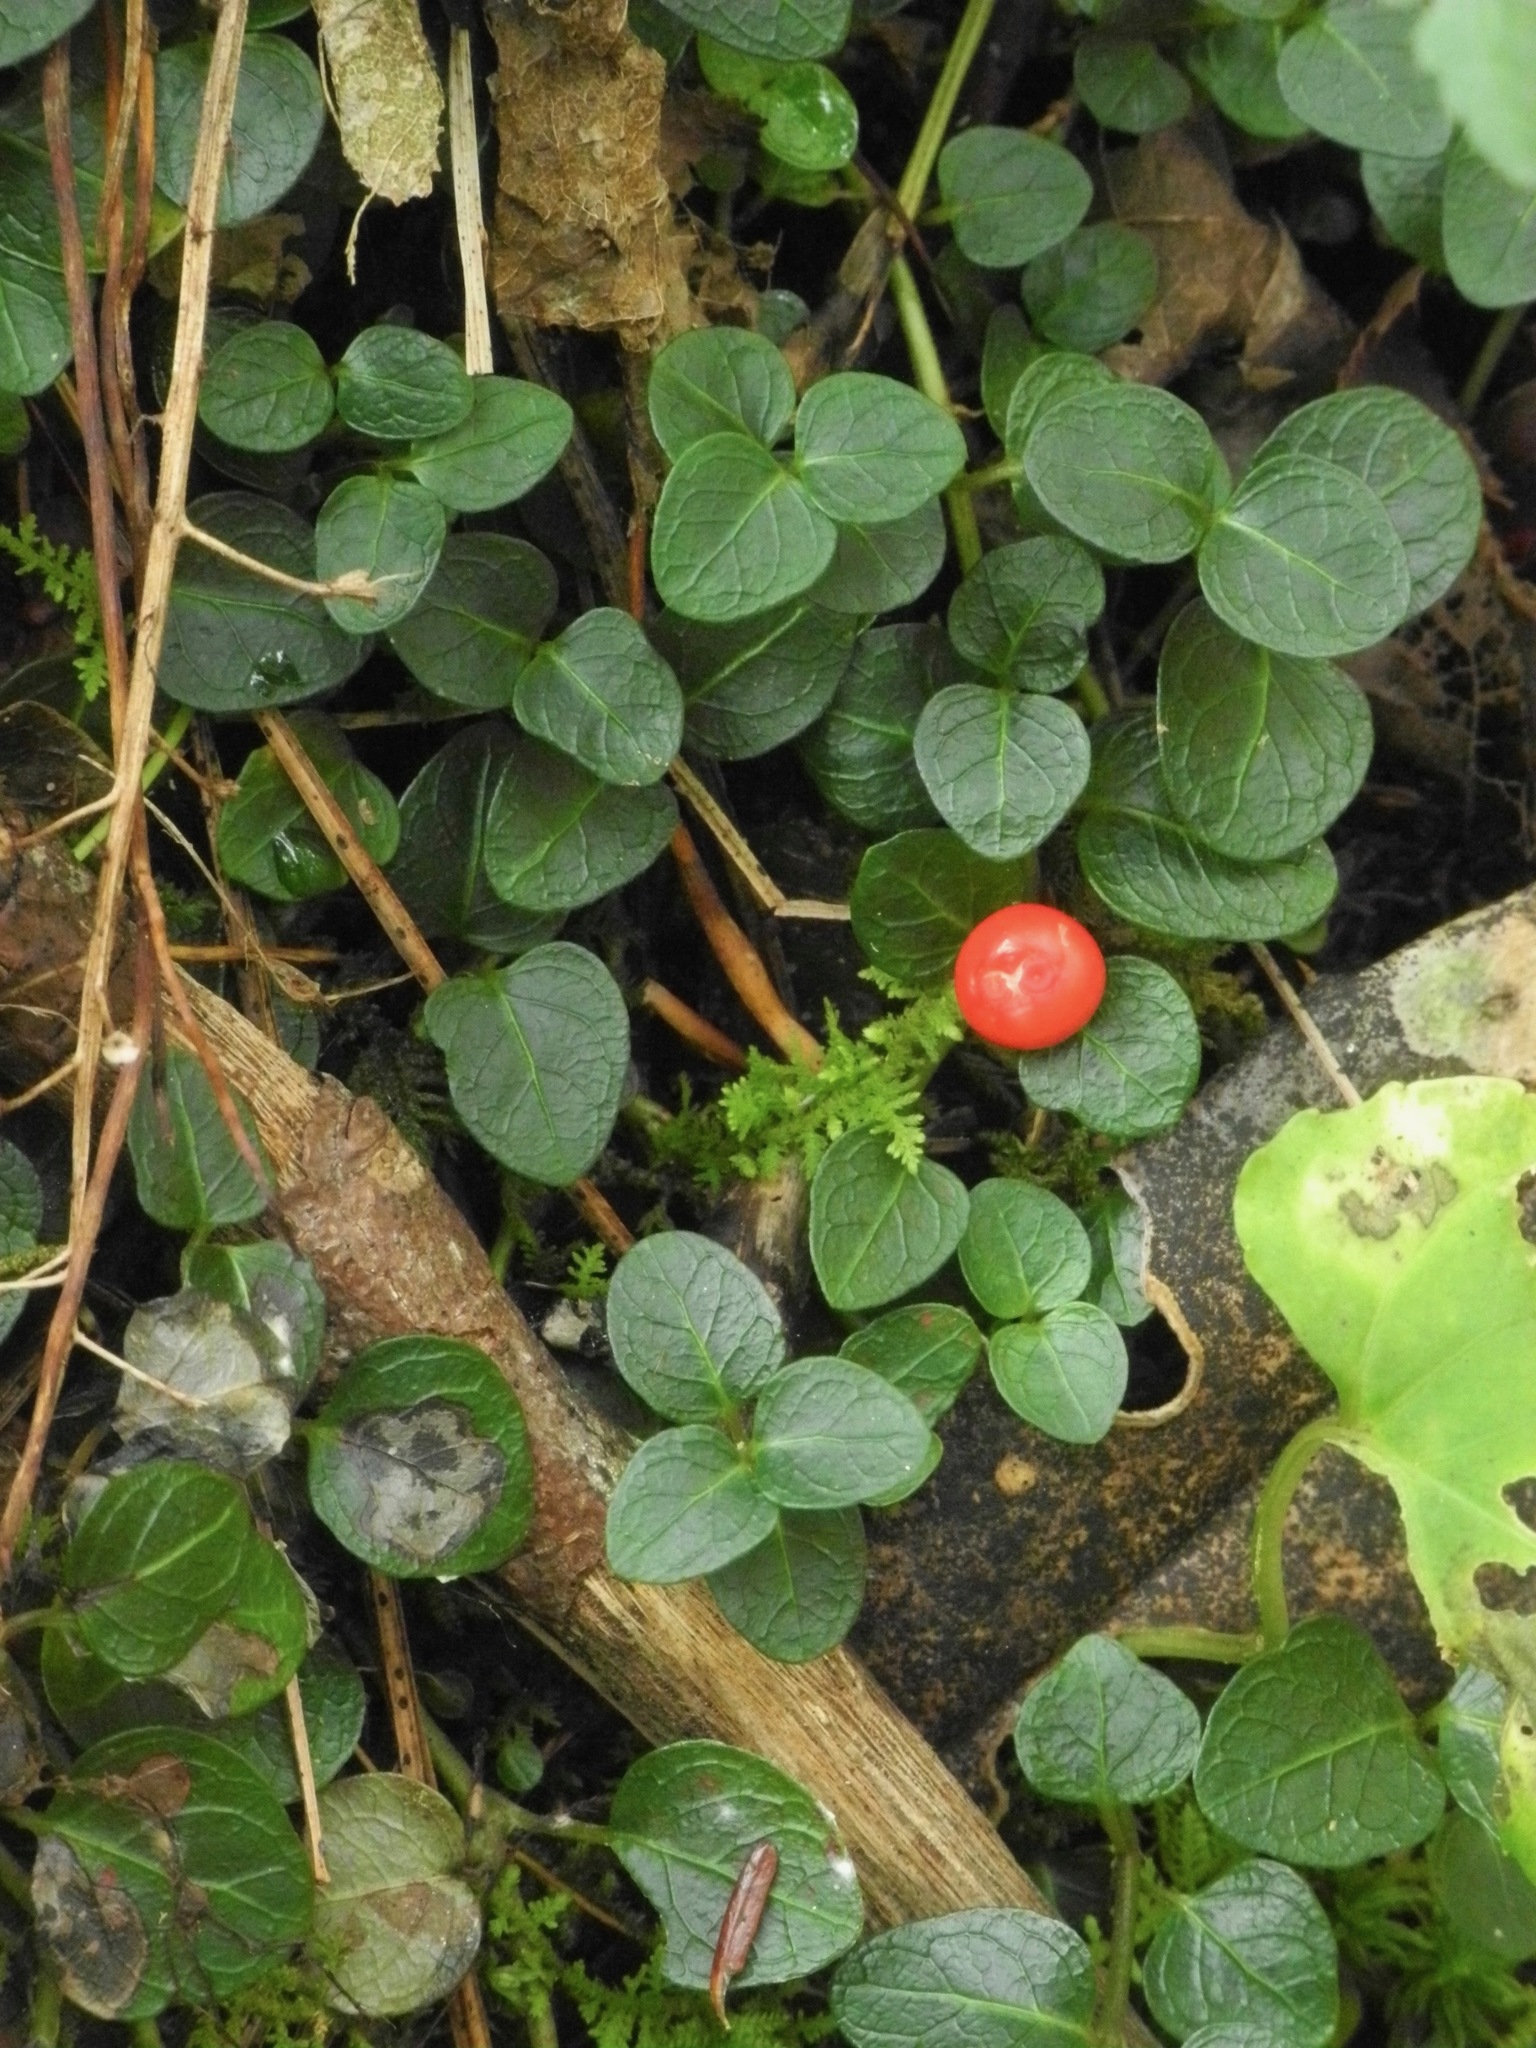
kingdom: Plantae
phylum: Tracheophyta
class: Magnoliopsida
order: Gentianales
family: Rubiaceae
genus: Mitchella
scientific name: Mitchella repens
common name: Partridge-berry
